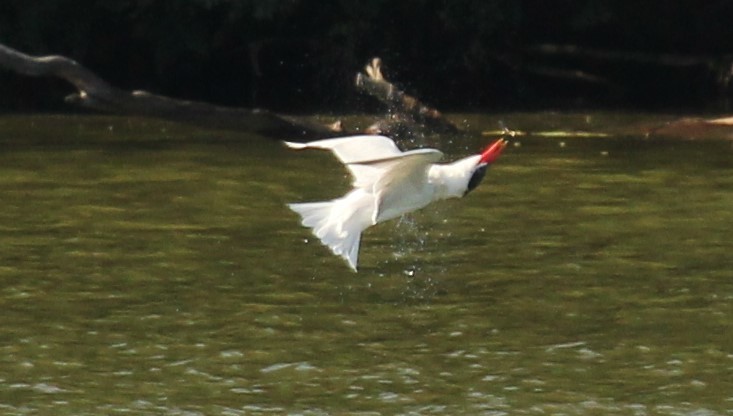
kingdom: Animalia
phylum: Chordata
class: Aves
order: Charadriiformes
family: Laridae
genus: Hydroprogne
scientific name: Hydroprogne caspia
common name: Caspian tern
